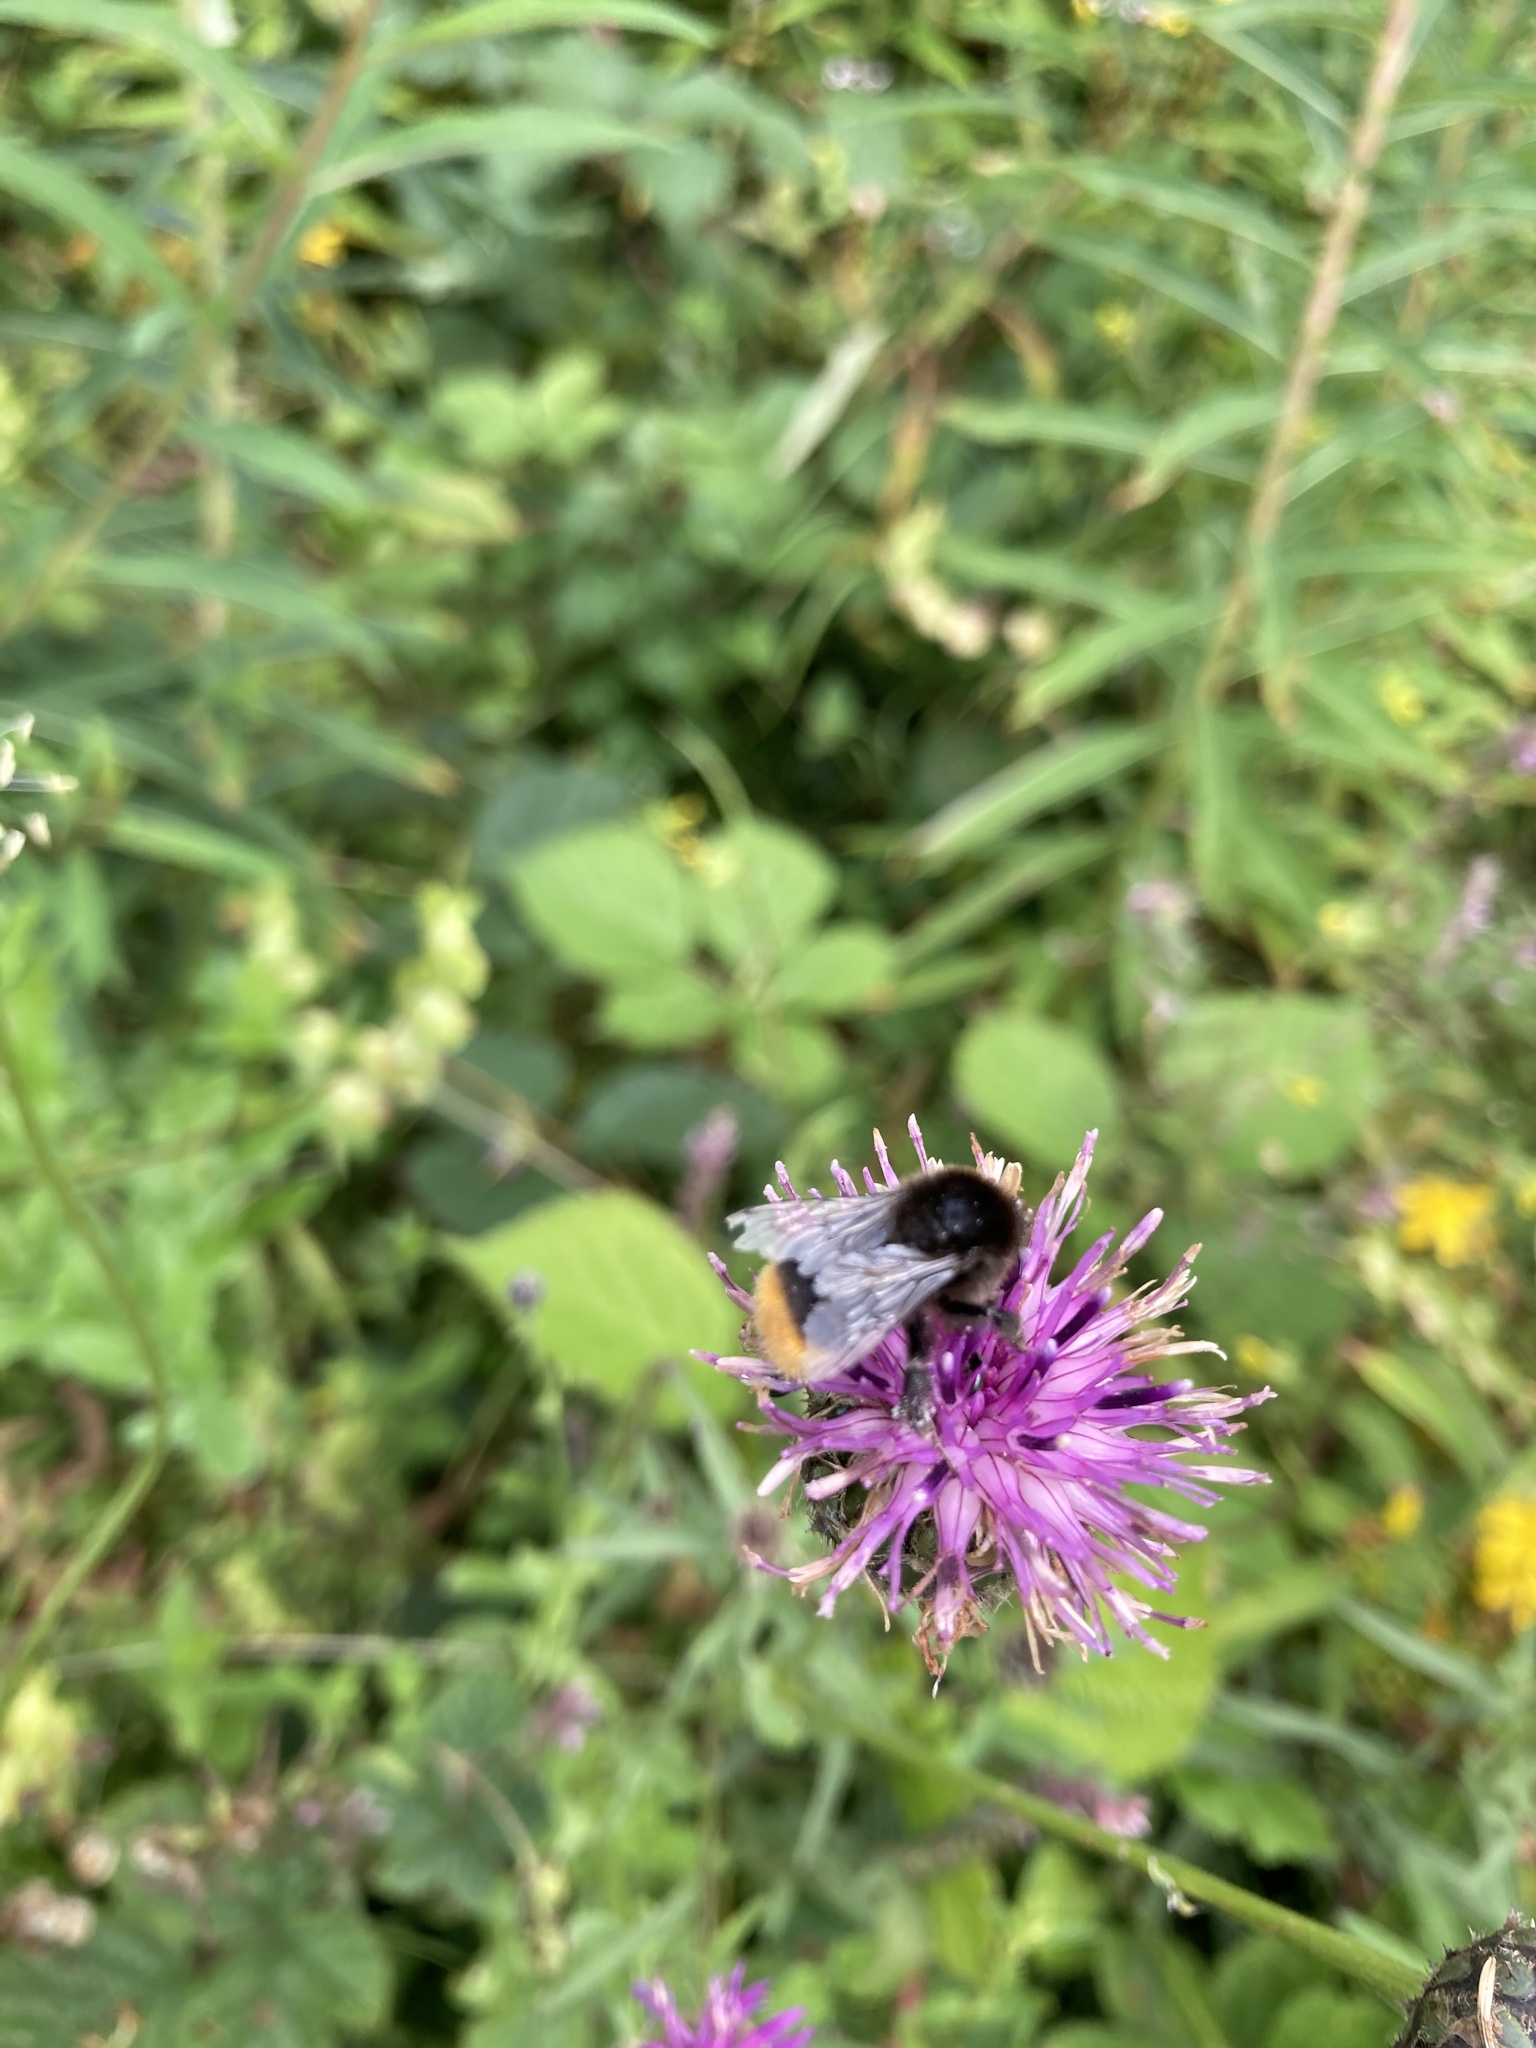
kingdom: Animalia
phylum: Arthropoda
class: Insecta
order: Hymenoptera
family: Apidae
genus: Bombus
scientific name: Bombus pascuorum
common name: Common carder bee
